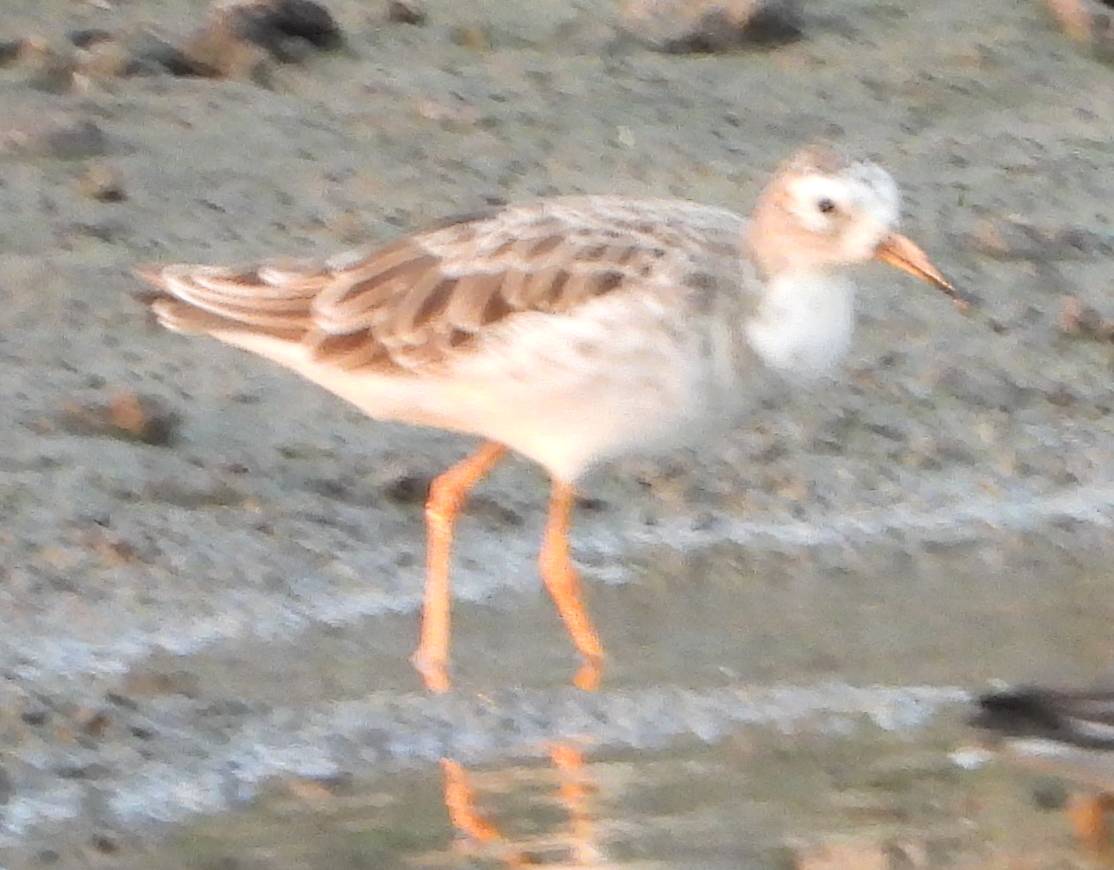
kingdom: Animalia
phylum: Chordata
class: Aves
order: Charadriiformes
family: Scolopacidae
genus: Calidris
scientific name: Calidris pugnax
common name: Ruff
